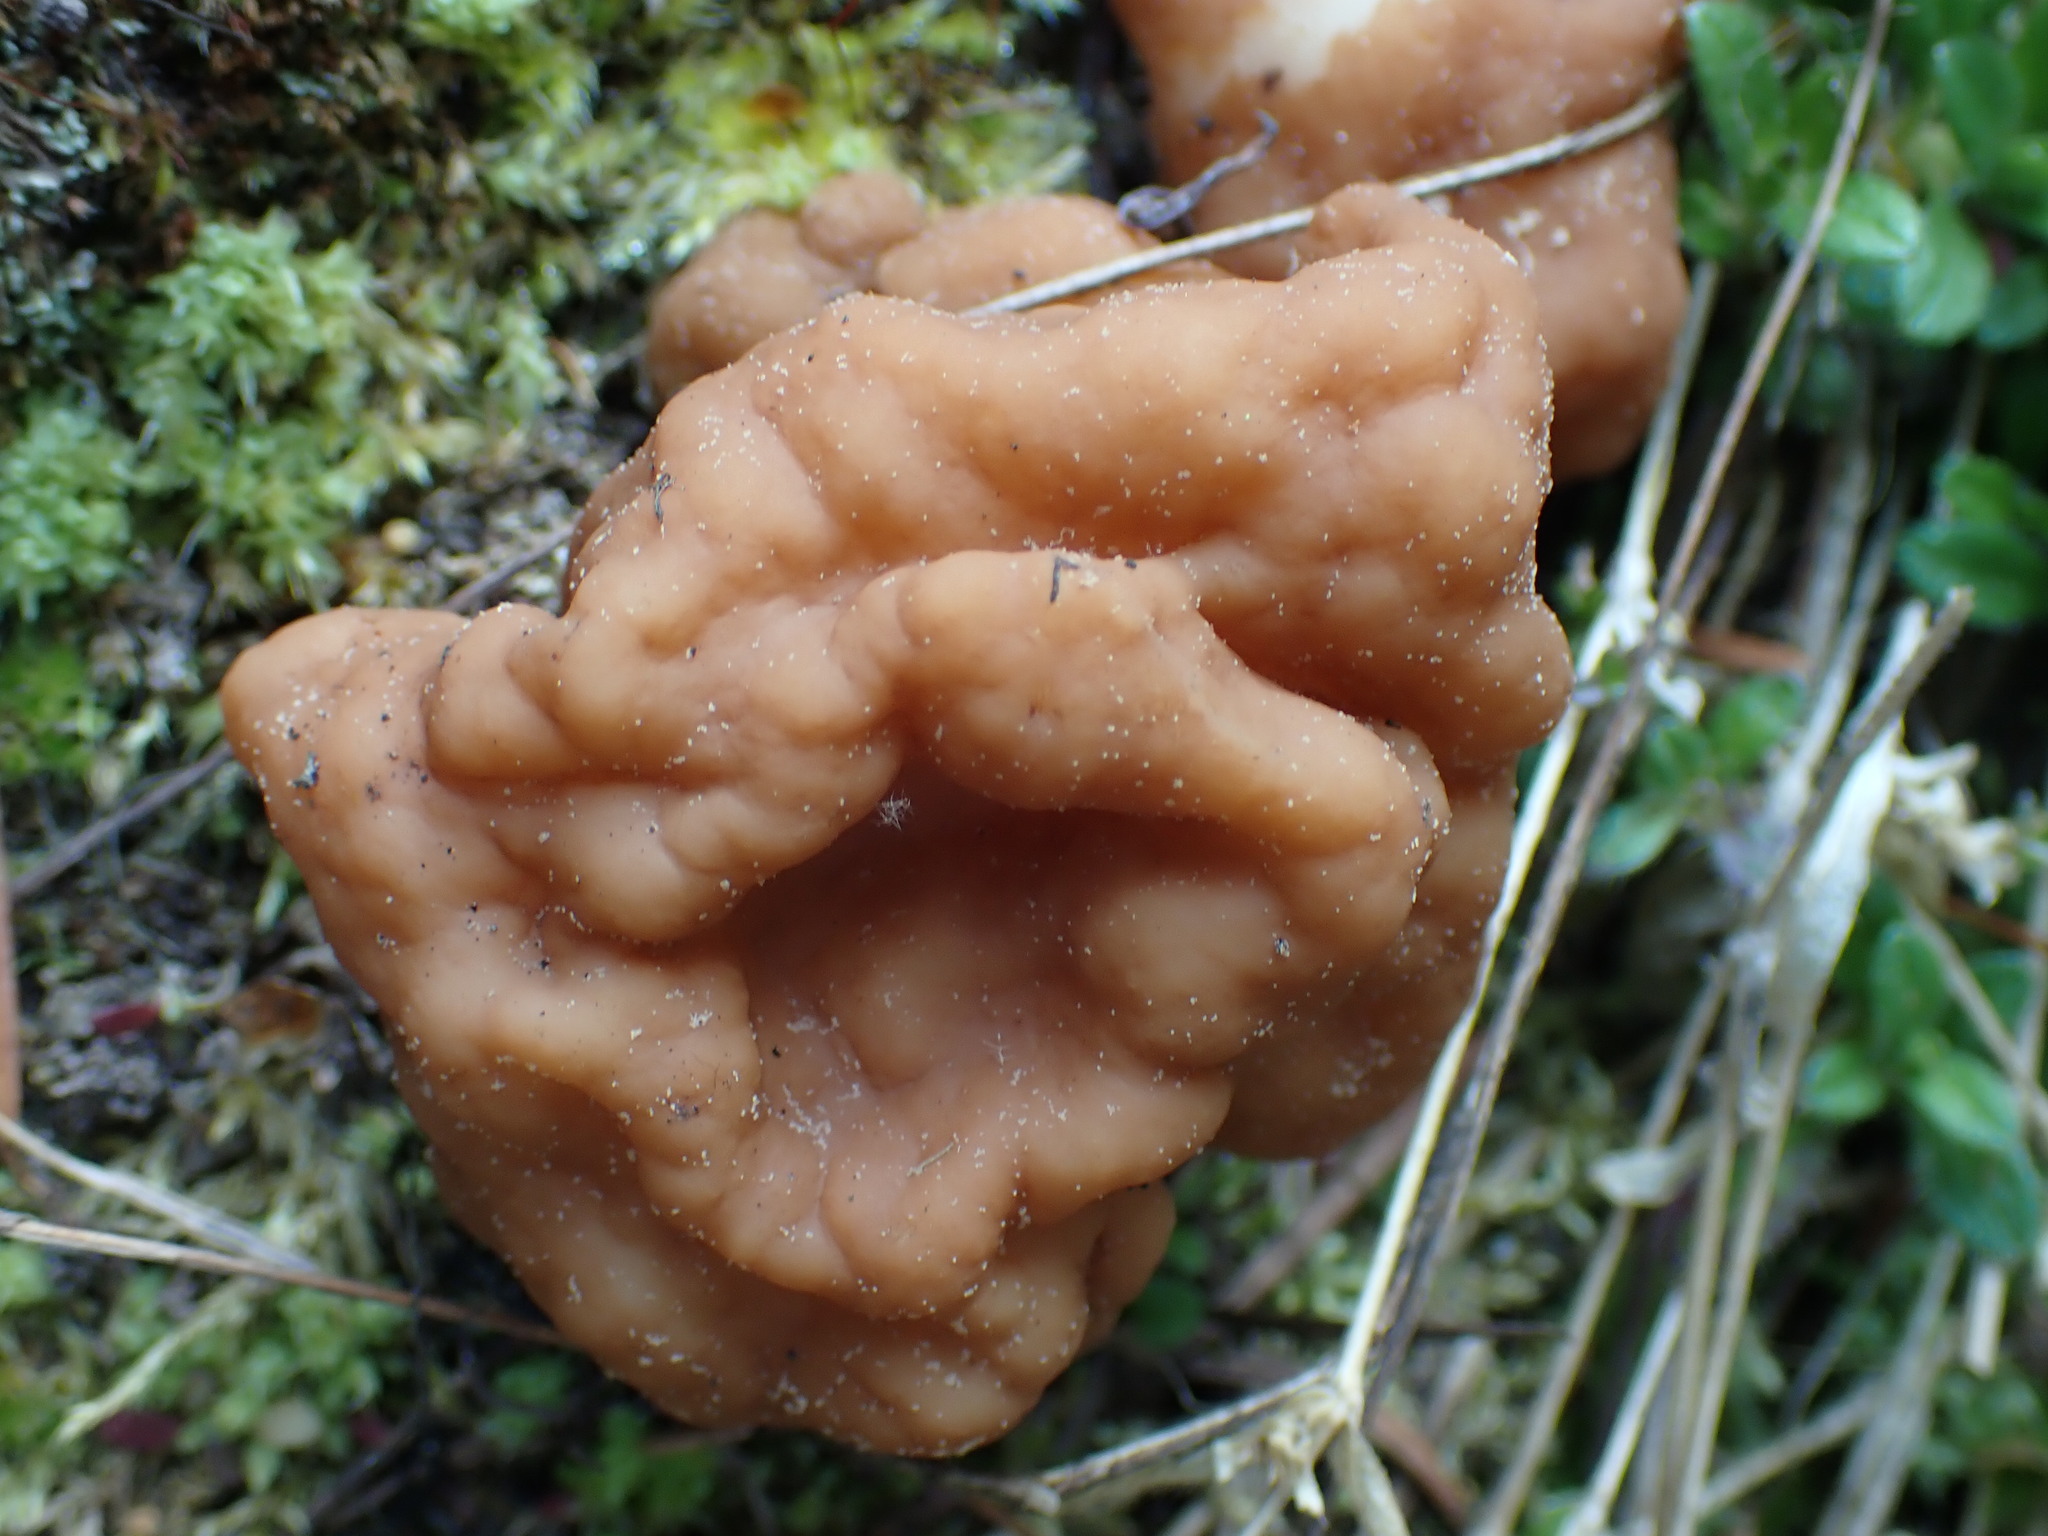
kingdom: Fungi
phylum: Ascomycota
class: Pezizomycetes
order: Pezizales
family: Discinaceae
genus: Discina
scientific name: Discina montana
